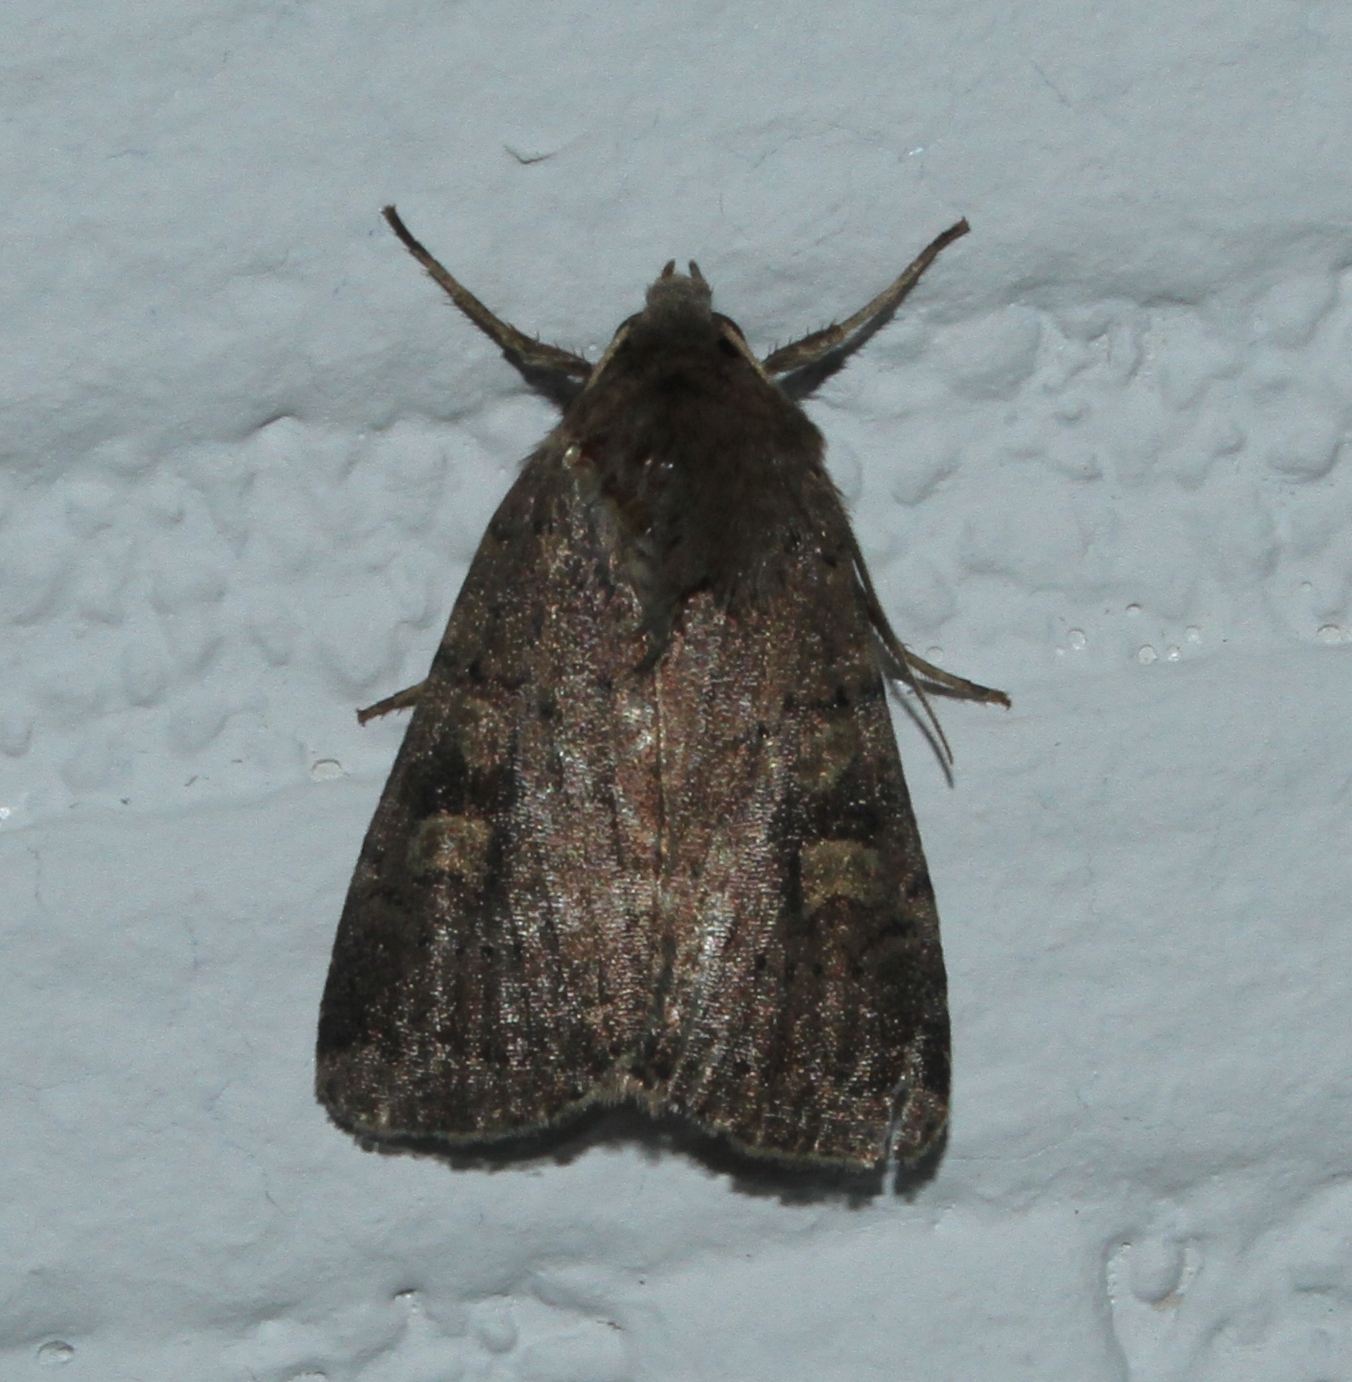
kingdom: Animalia
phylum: Arthropoda
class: Insecta
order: Lepidoptera
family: Noctuidae
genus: Xestia
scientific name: Xestia xanthographa
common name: Square-spot rustic
